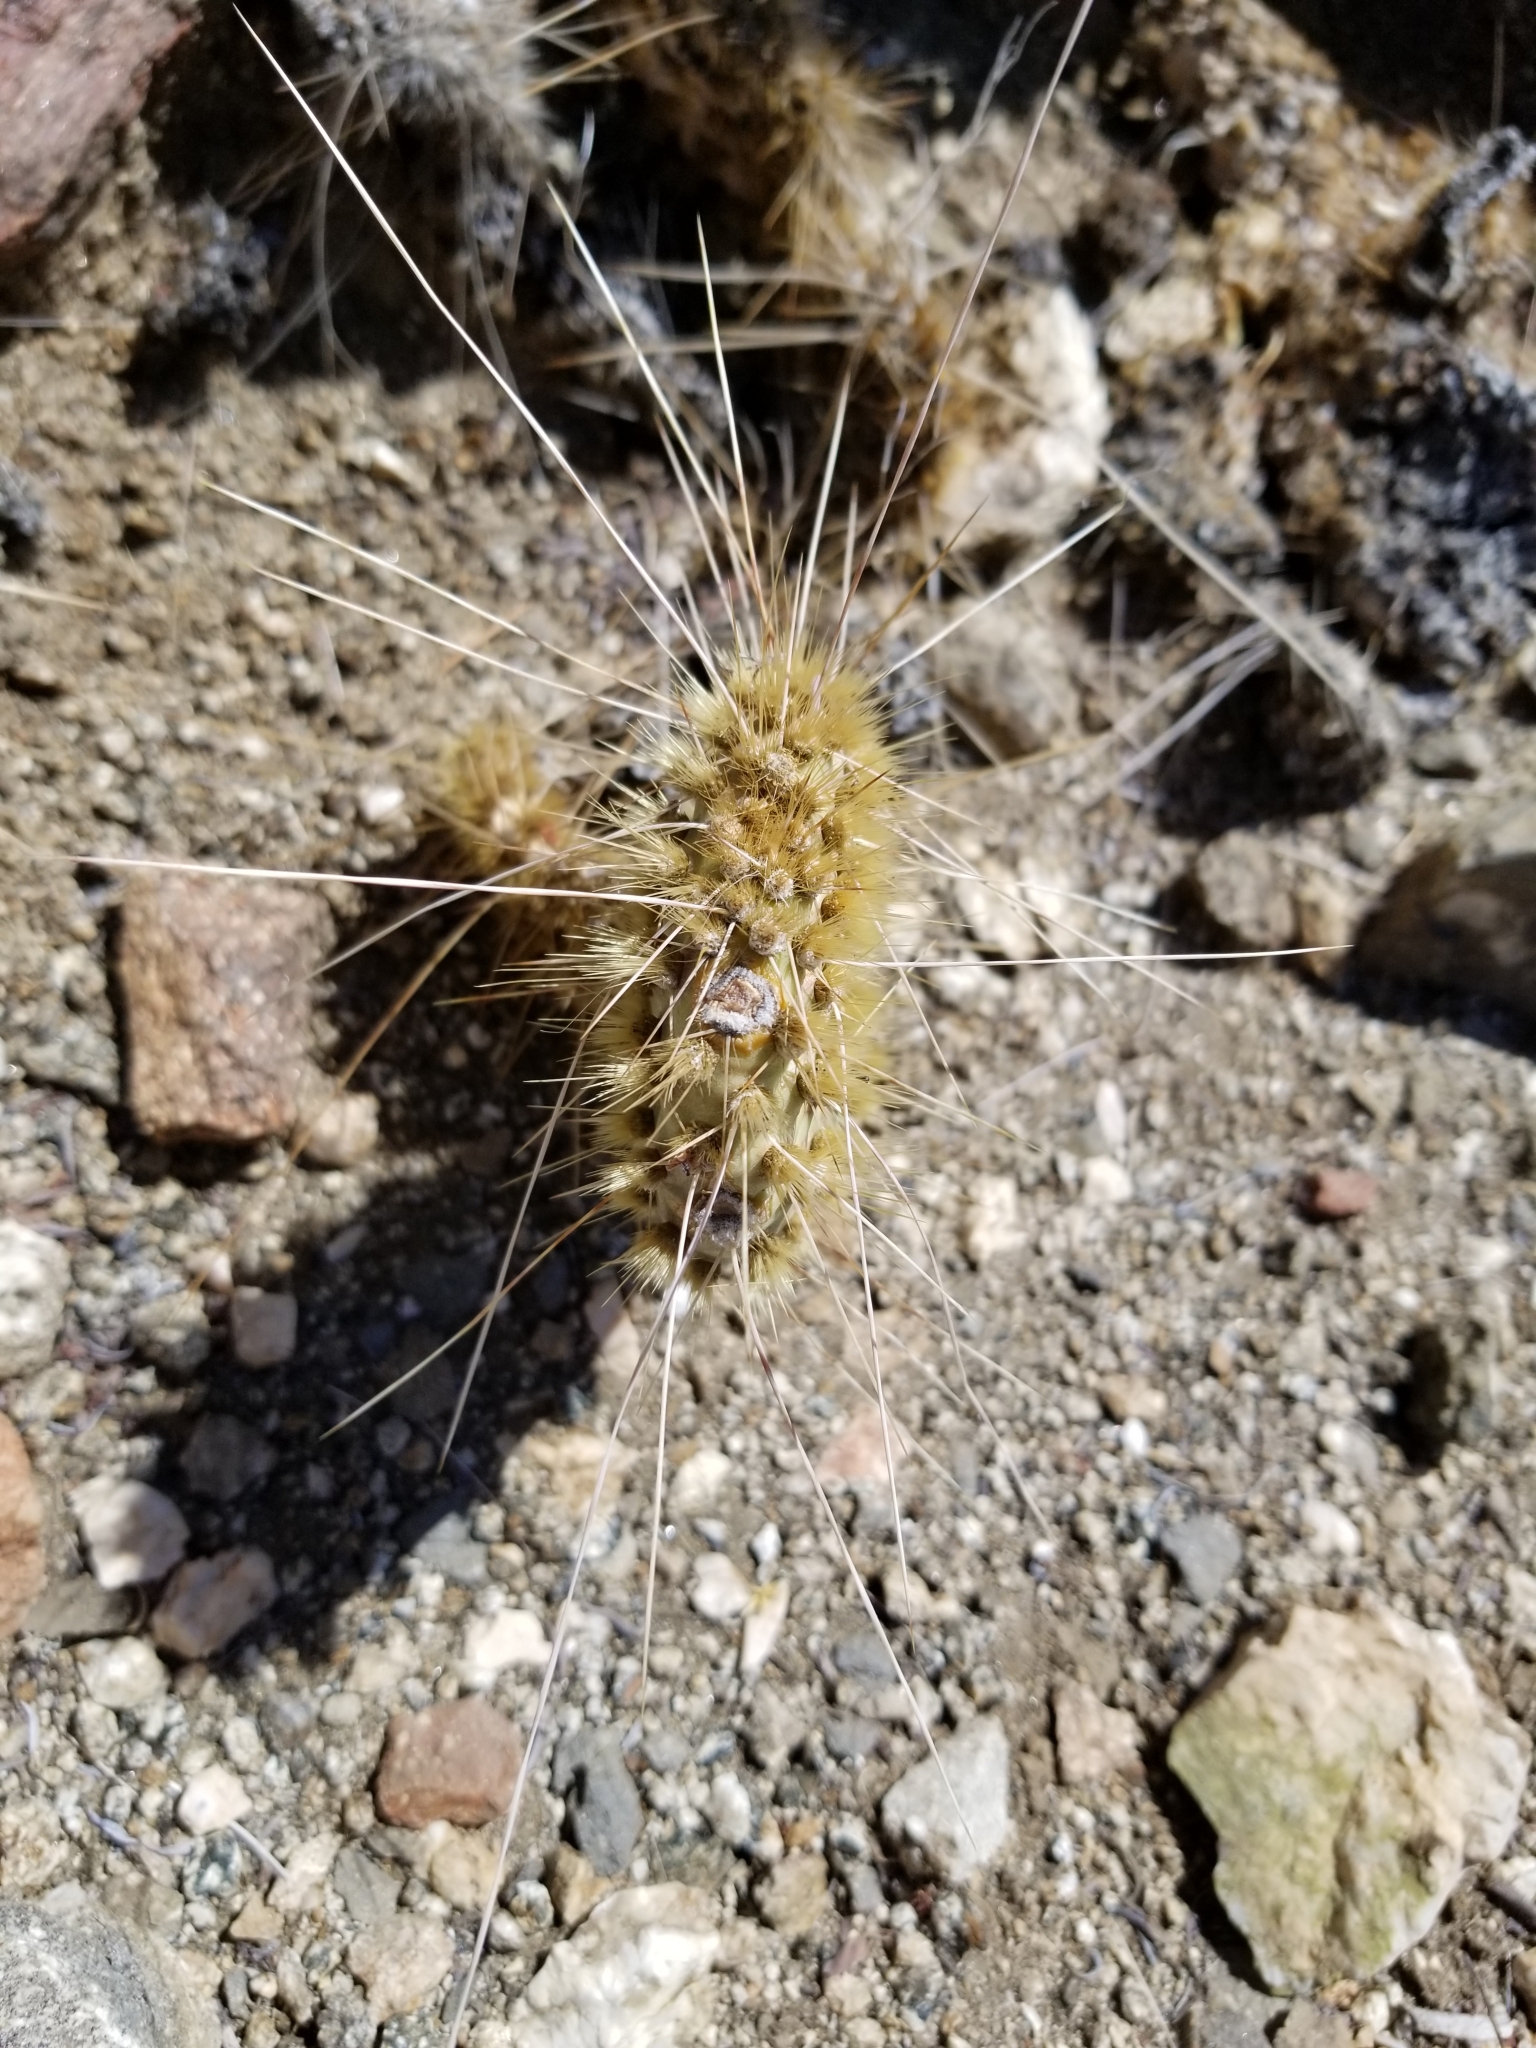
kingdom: Plantae
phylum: Tracheophyta
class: Magnoliopsida
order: Caryophyllales
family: Cactaceae
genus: Opuntia
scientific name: Opuntia polyacantha
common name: Plains prickly-pear
